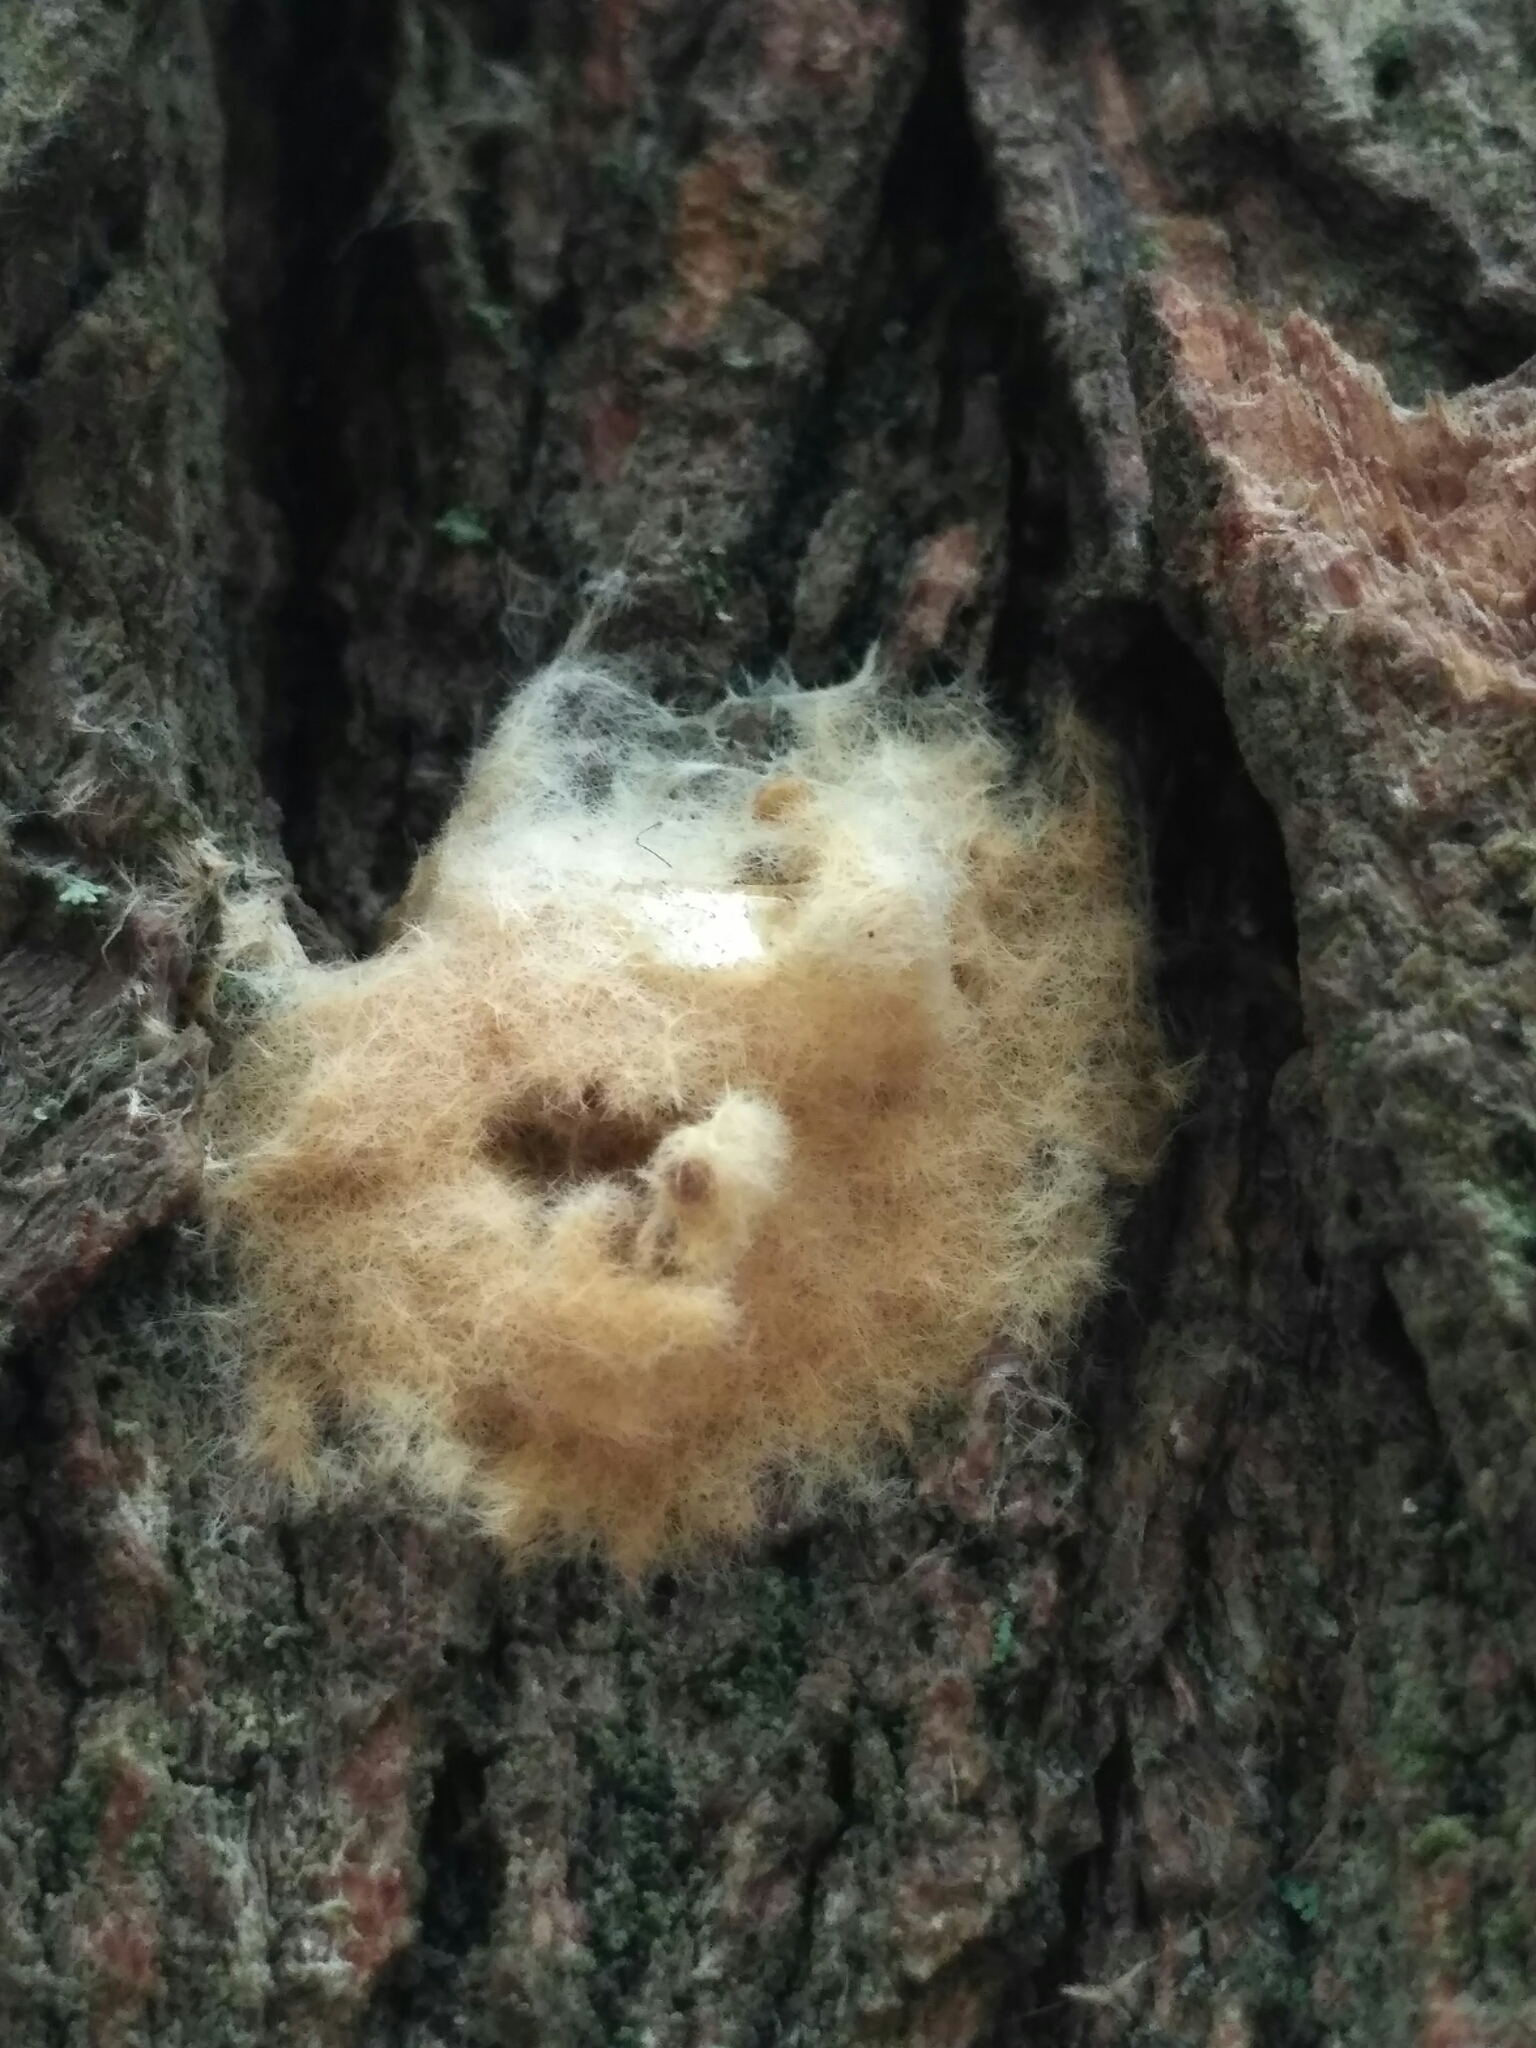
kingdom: Animalia
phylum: Arthropoda
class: Insecta
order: Lepidoptera
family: Erebidae
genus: Lymantria
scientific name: Lymantria dispar
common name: Gypsy moth
